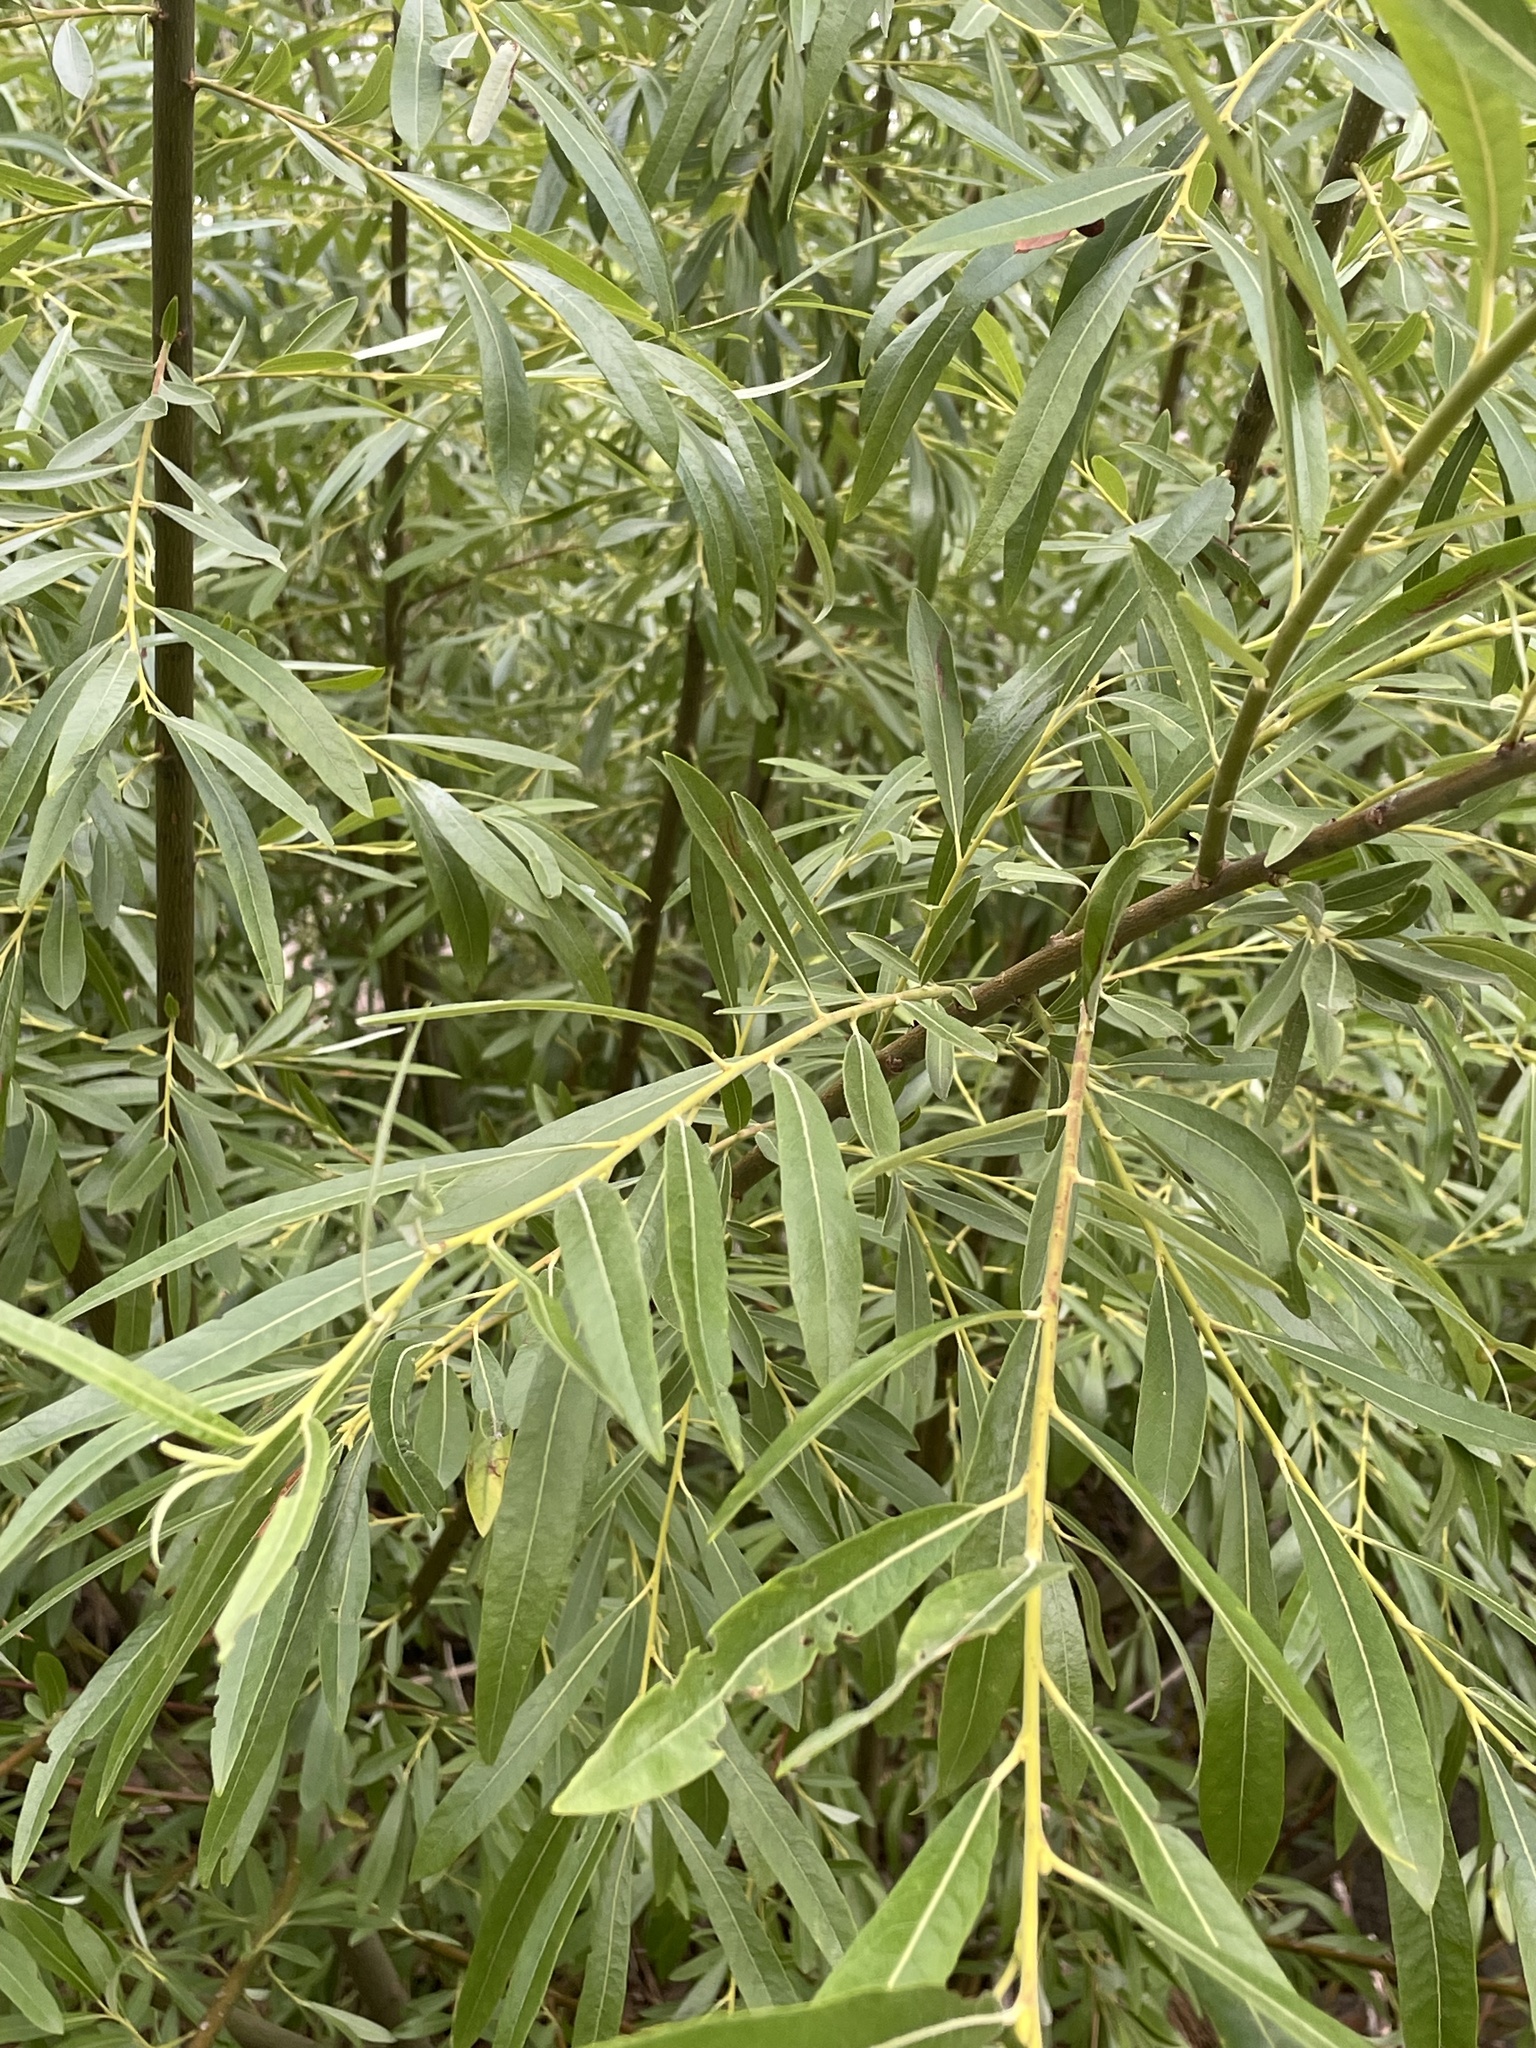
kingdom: Plantae
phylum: Tracheophyta
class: Magnoliopsida
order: Malpighiales
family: Salicaceae
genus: Salix
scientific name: Salix gooddingii
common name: Goodding's willow
